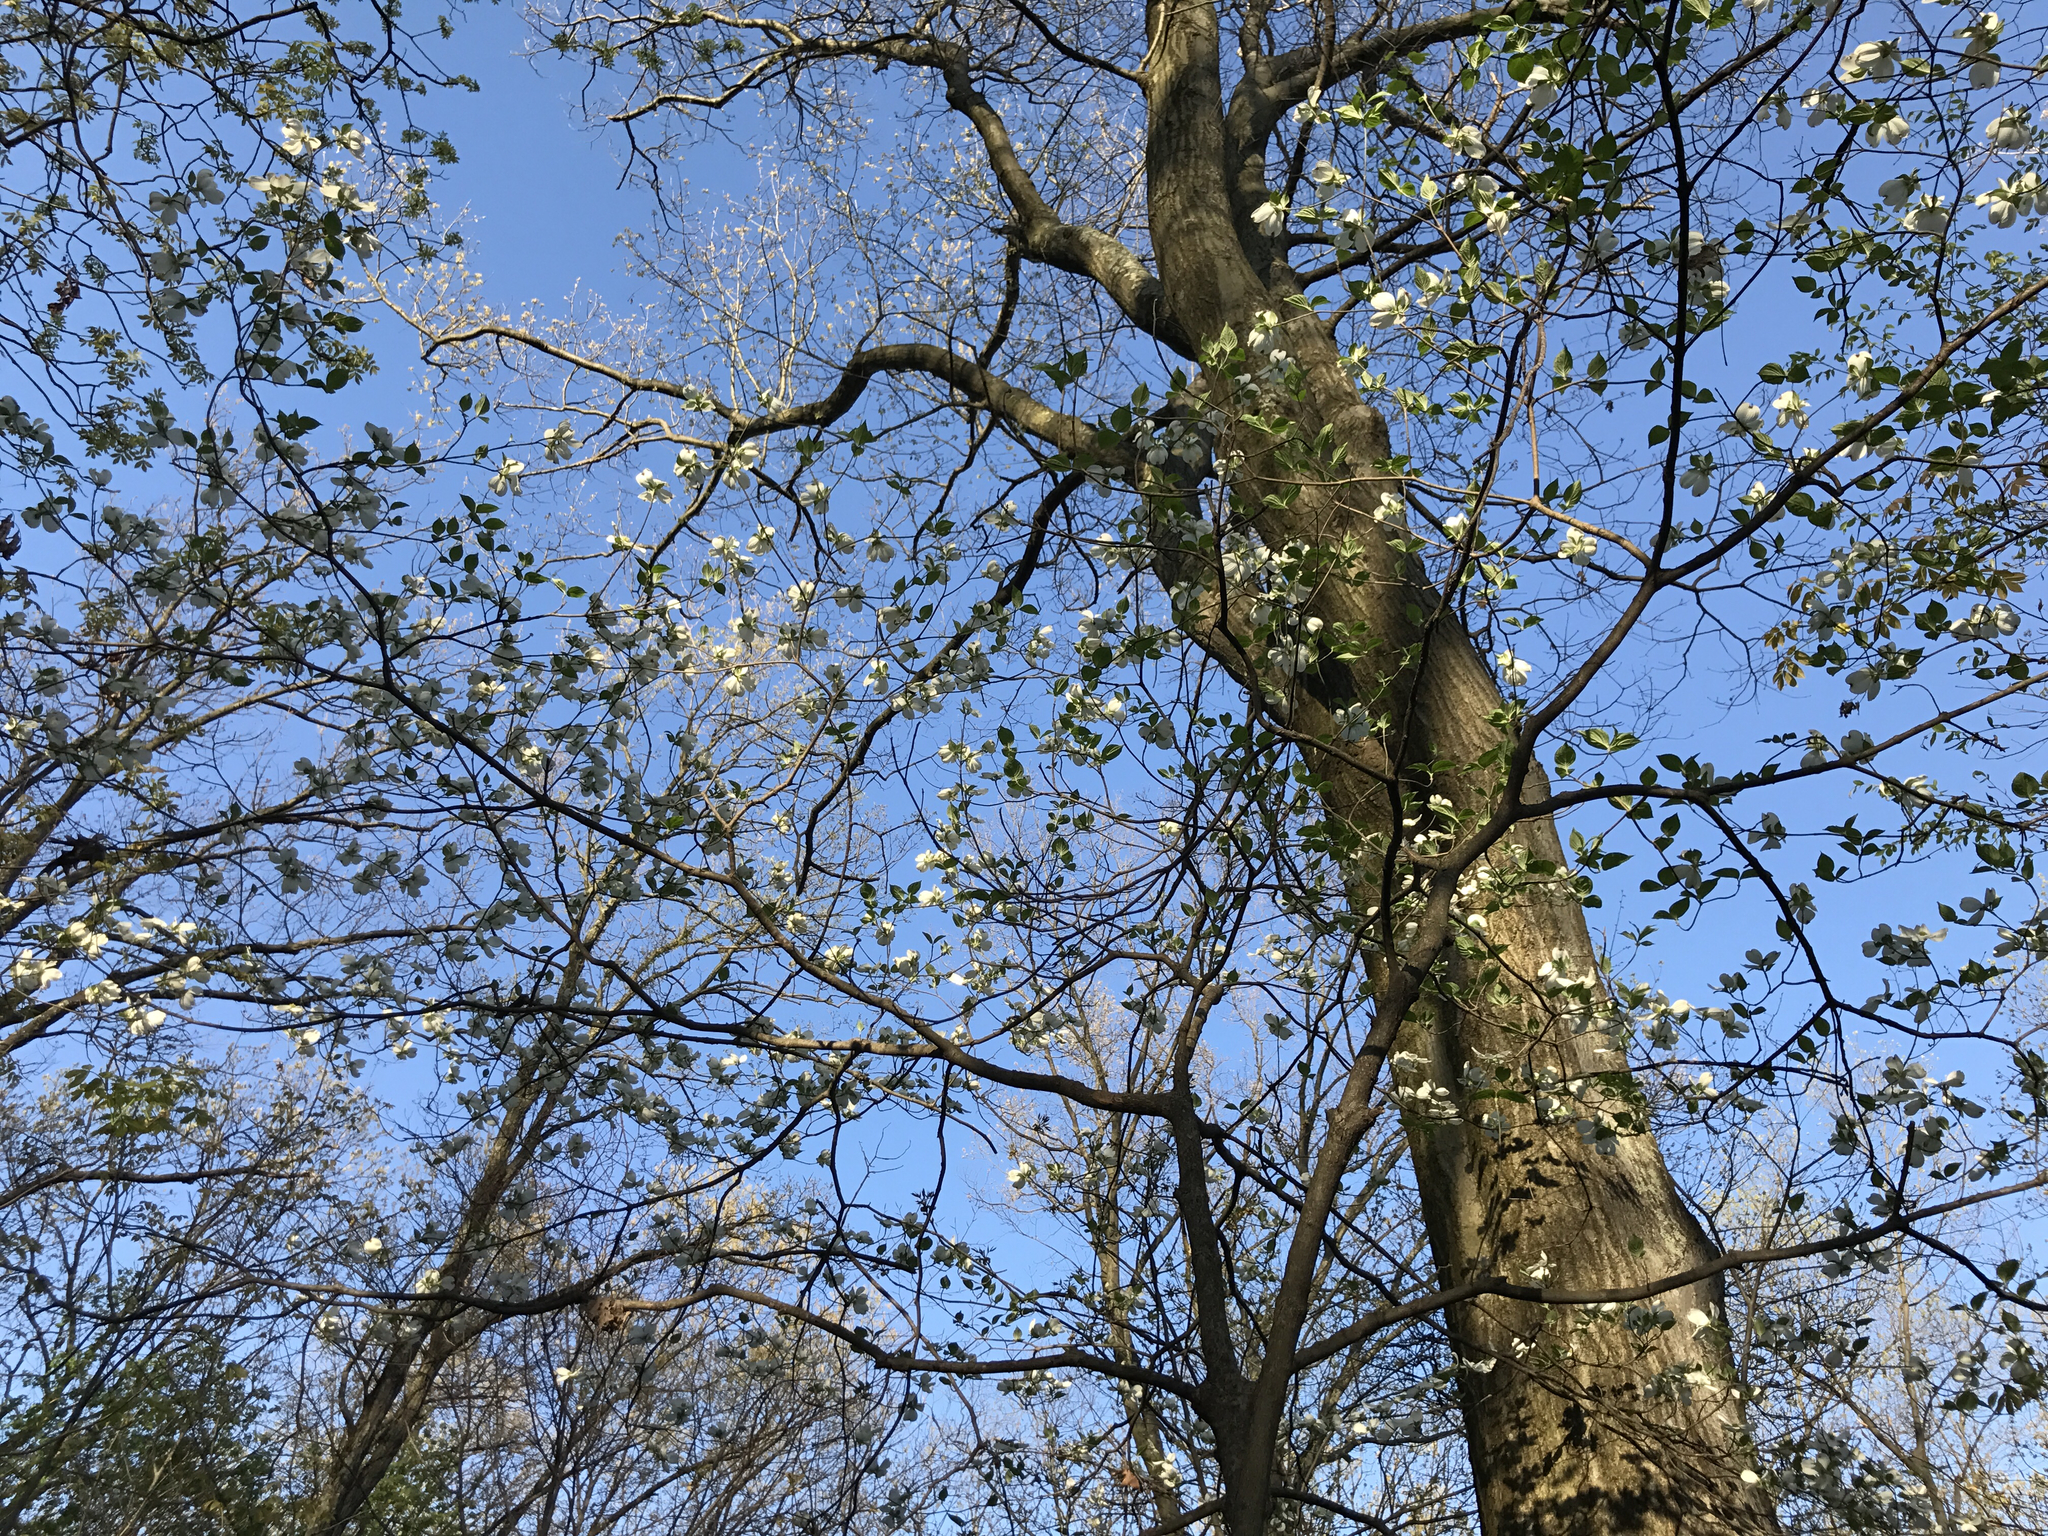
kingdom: Plantae
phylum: Tracheophyta
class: Magnoliopsida
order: Cornales
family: Cornaceae
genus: Cornus
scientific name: Cornus florida
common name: Flowering dogwood
